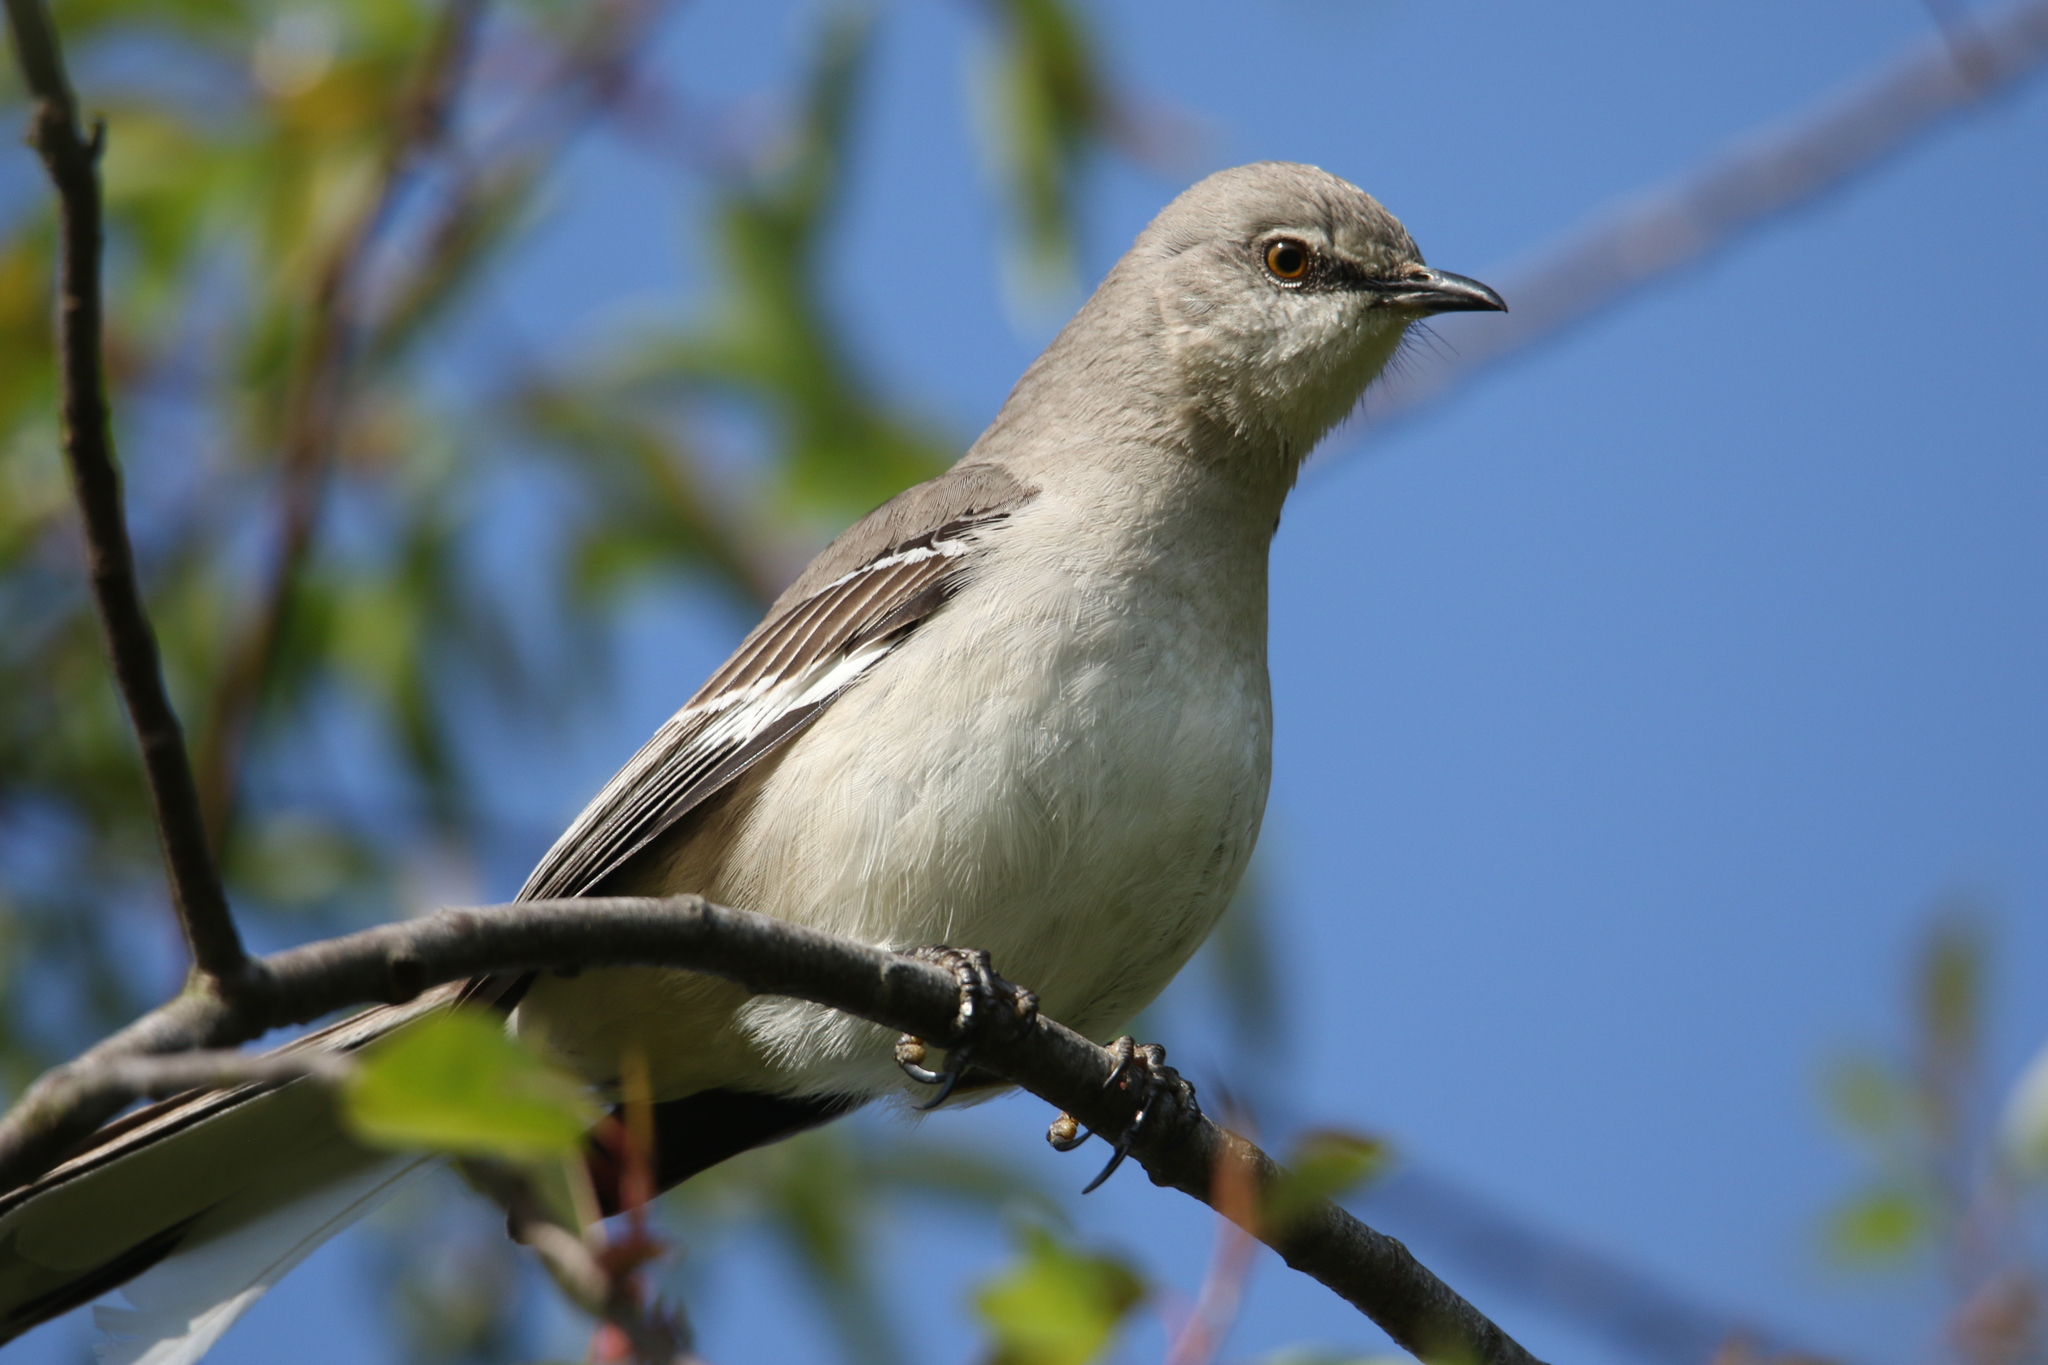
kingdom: Animalia
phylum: Chordata
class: Aves
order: Passeriformes
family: Mimidae
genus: Mimus
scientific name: Mimus polyglottos
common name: Northern mockingbird
